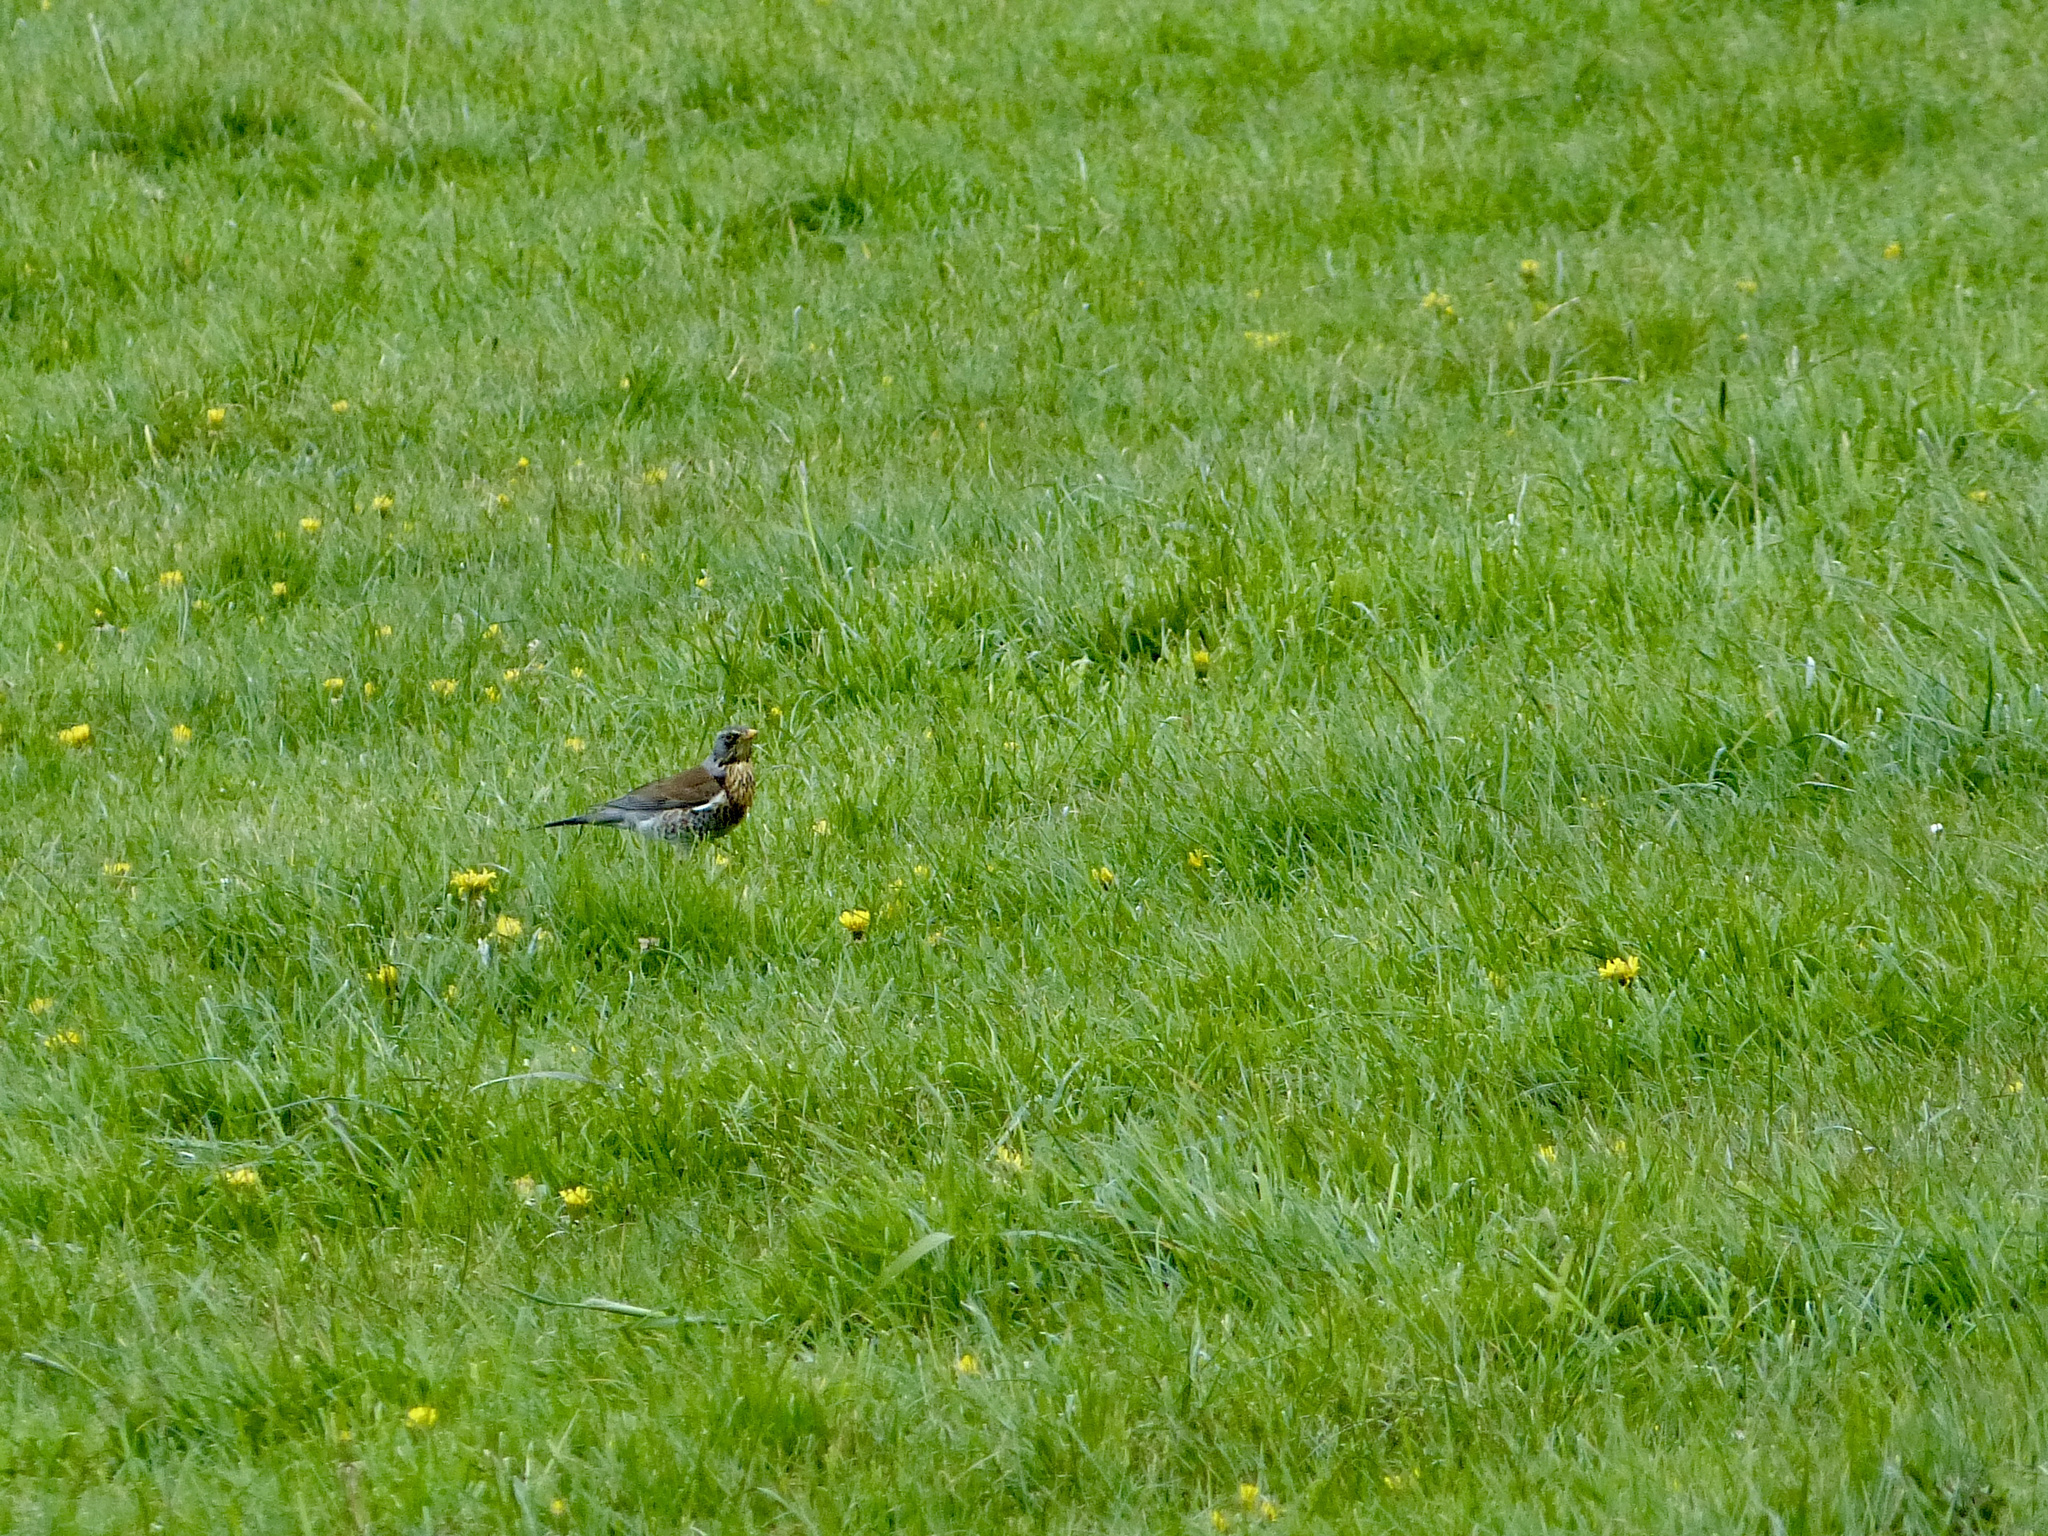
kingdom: Animalia
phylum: Chordata
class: Aves
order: Passeriformes
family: Turdidae
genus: Turdus
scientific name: Turdus pilaris
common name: Fieldfare
